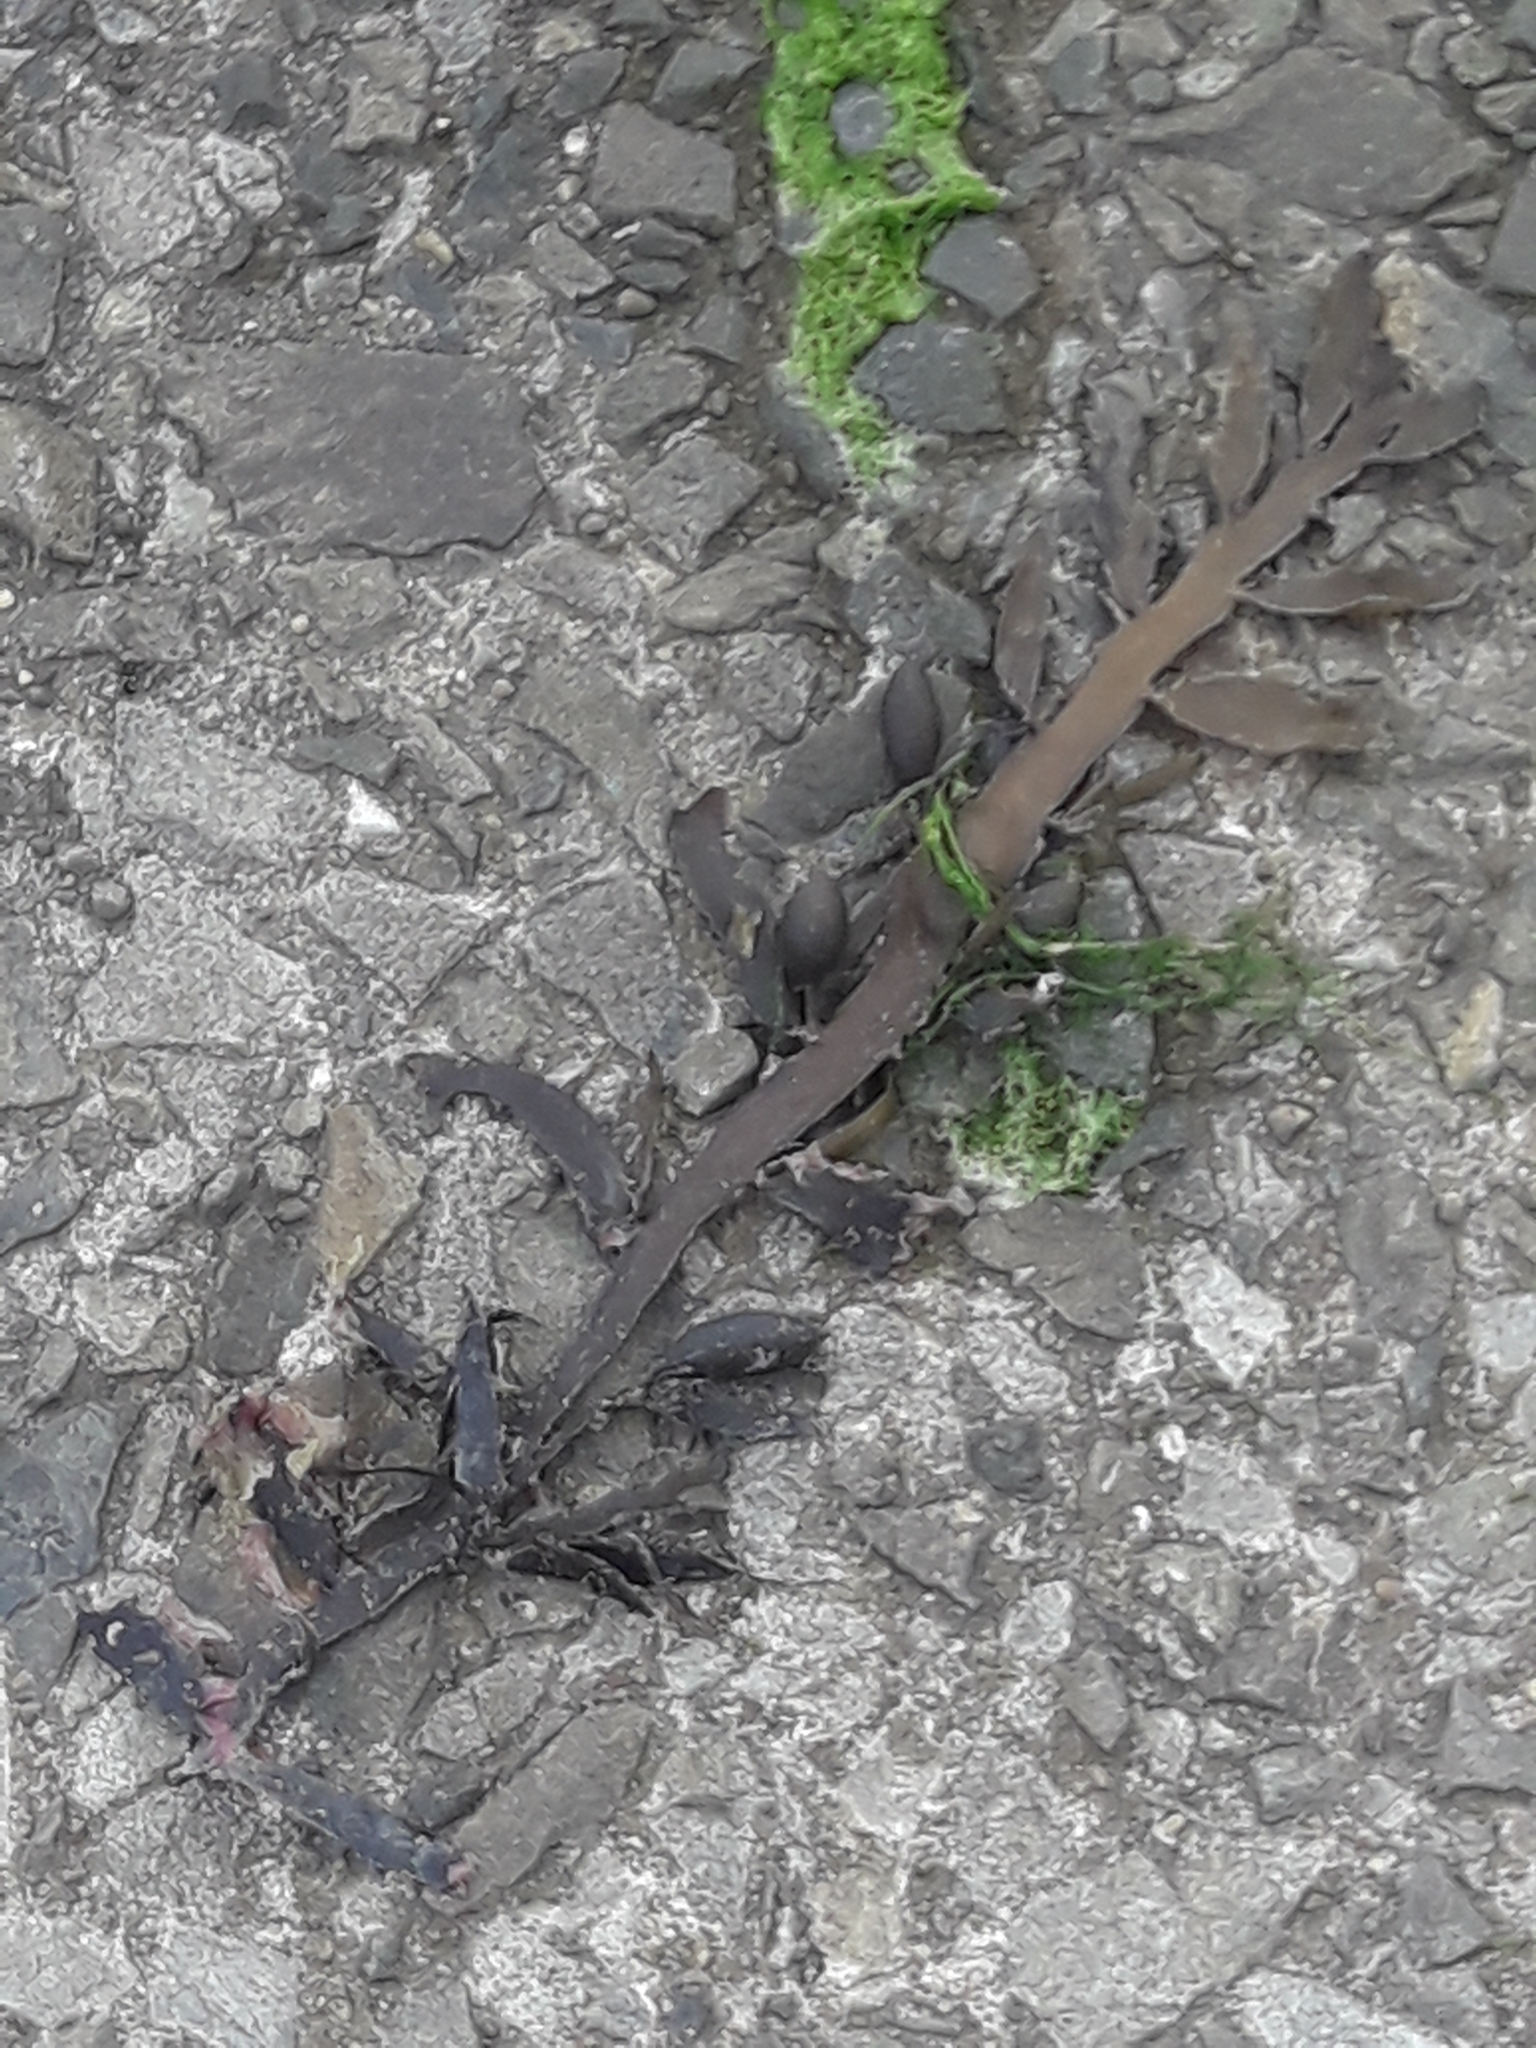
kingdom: Chromista
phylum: Ochrophyta
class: Phaeophyceae
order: Fucales
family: Sargassaceae
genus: Carpophyllum
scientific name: Carpophyllum maschalocarpum
